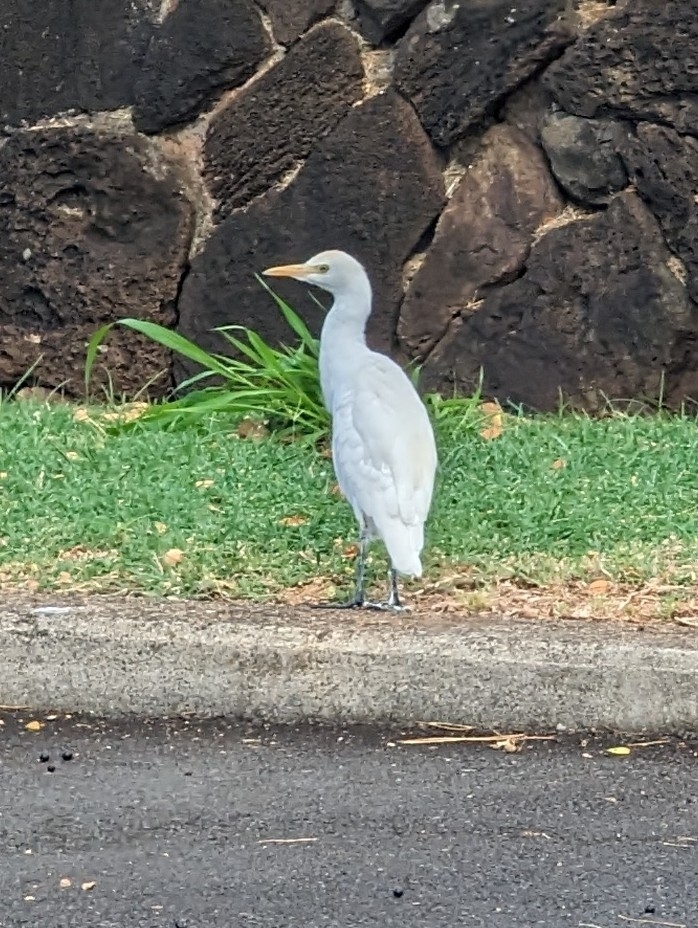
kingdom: Animalia
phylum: Chordata
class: Aves
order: Pelecaniformes
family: Ardeidae
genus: Bubulcus
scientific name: Bubulcus ibis
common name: Cattle egret
